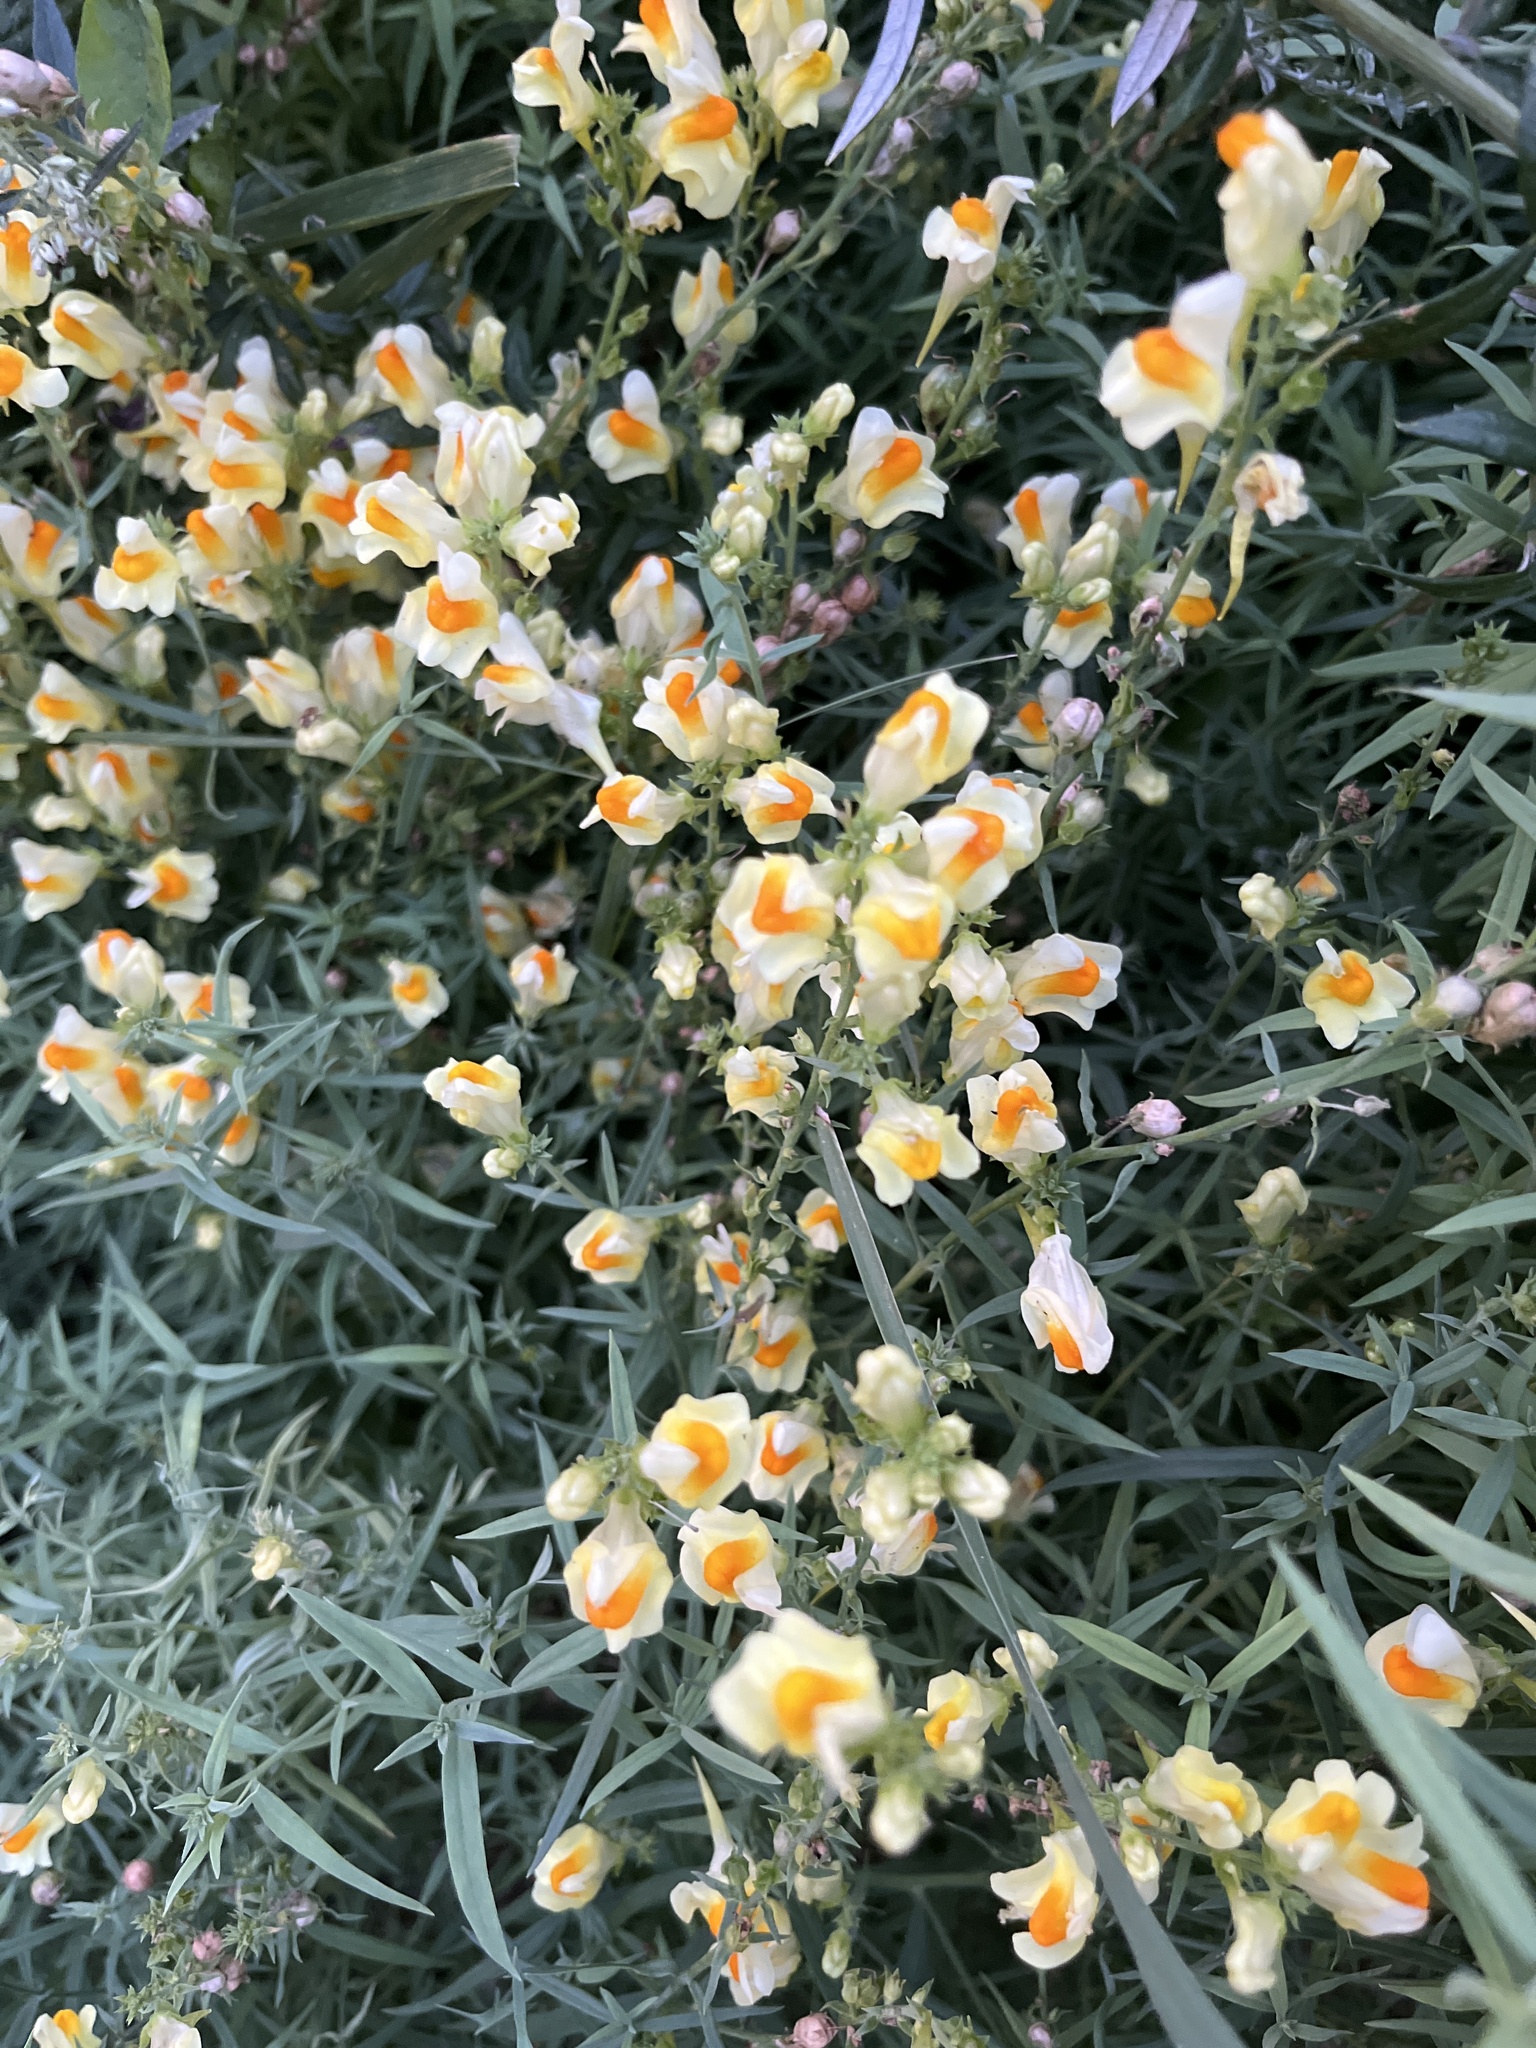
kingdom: Plantae
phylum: Tracheophyta
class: Magnoliopsida
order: Lamiales
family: Plantaginaceae
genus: Linaria
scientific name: Linaria vulgaris
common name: Butter and eggs
